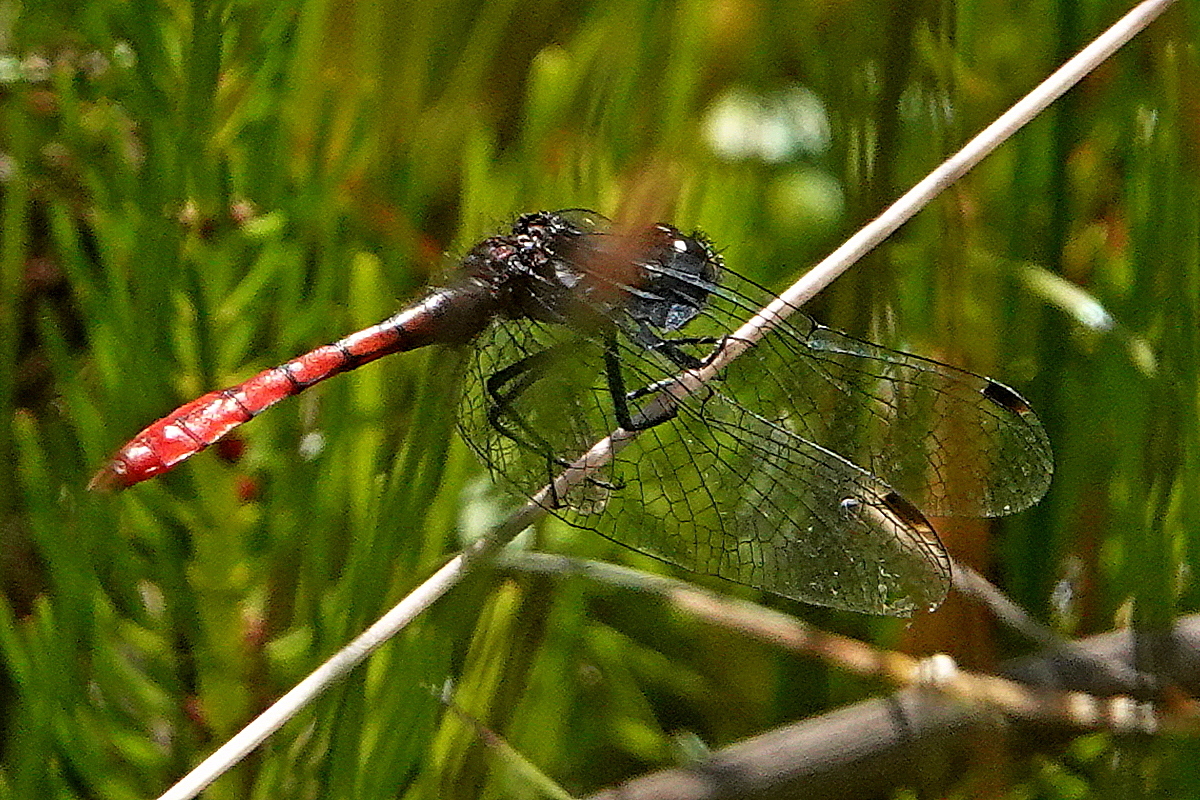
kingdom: Animalia
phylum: Arthropoda
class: Insecta
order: Odonata
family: Libellulidae
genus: Nannophya
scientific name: Nannophya dalei
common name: Eastern pygmyfly
